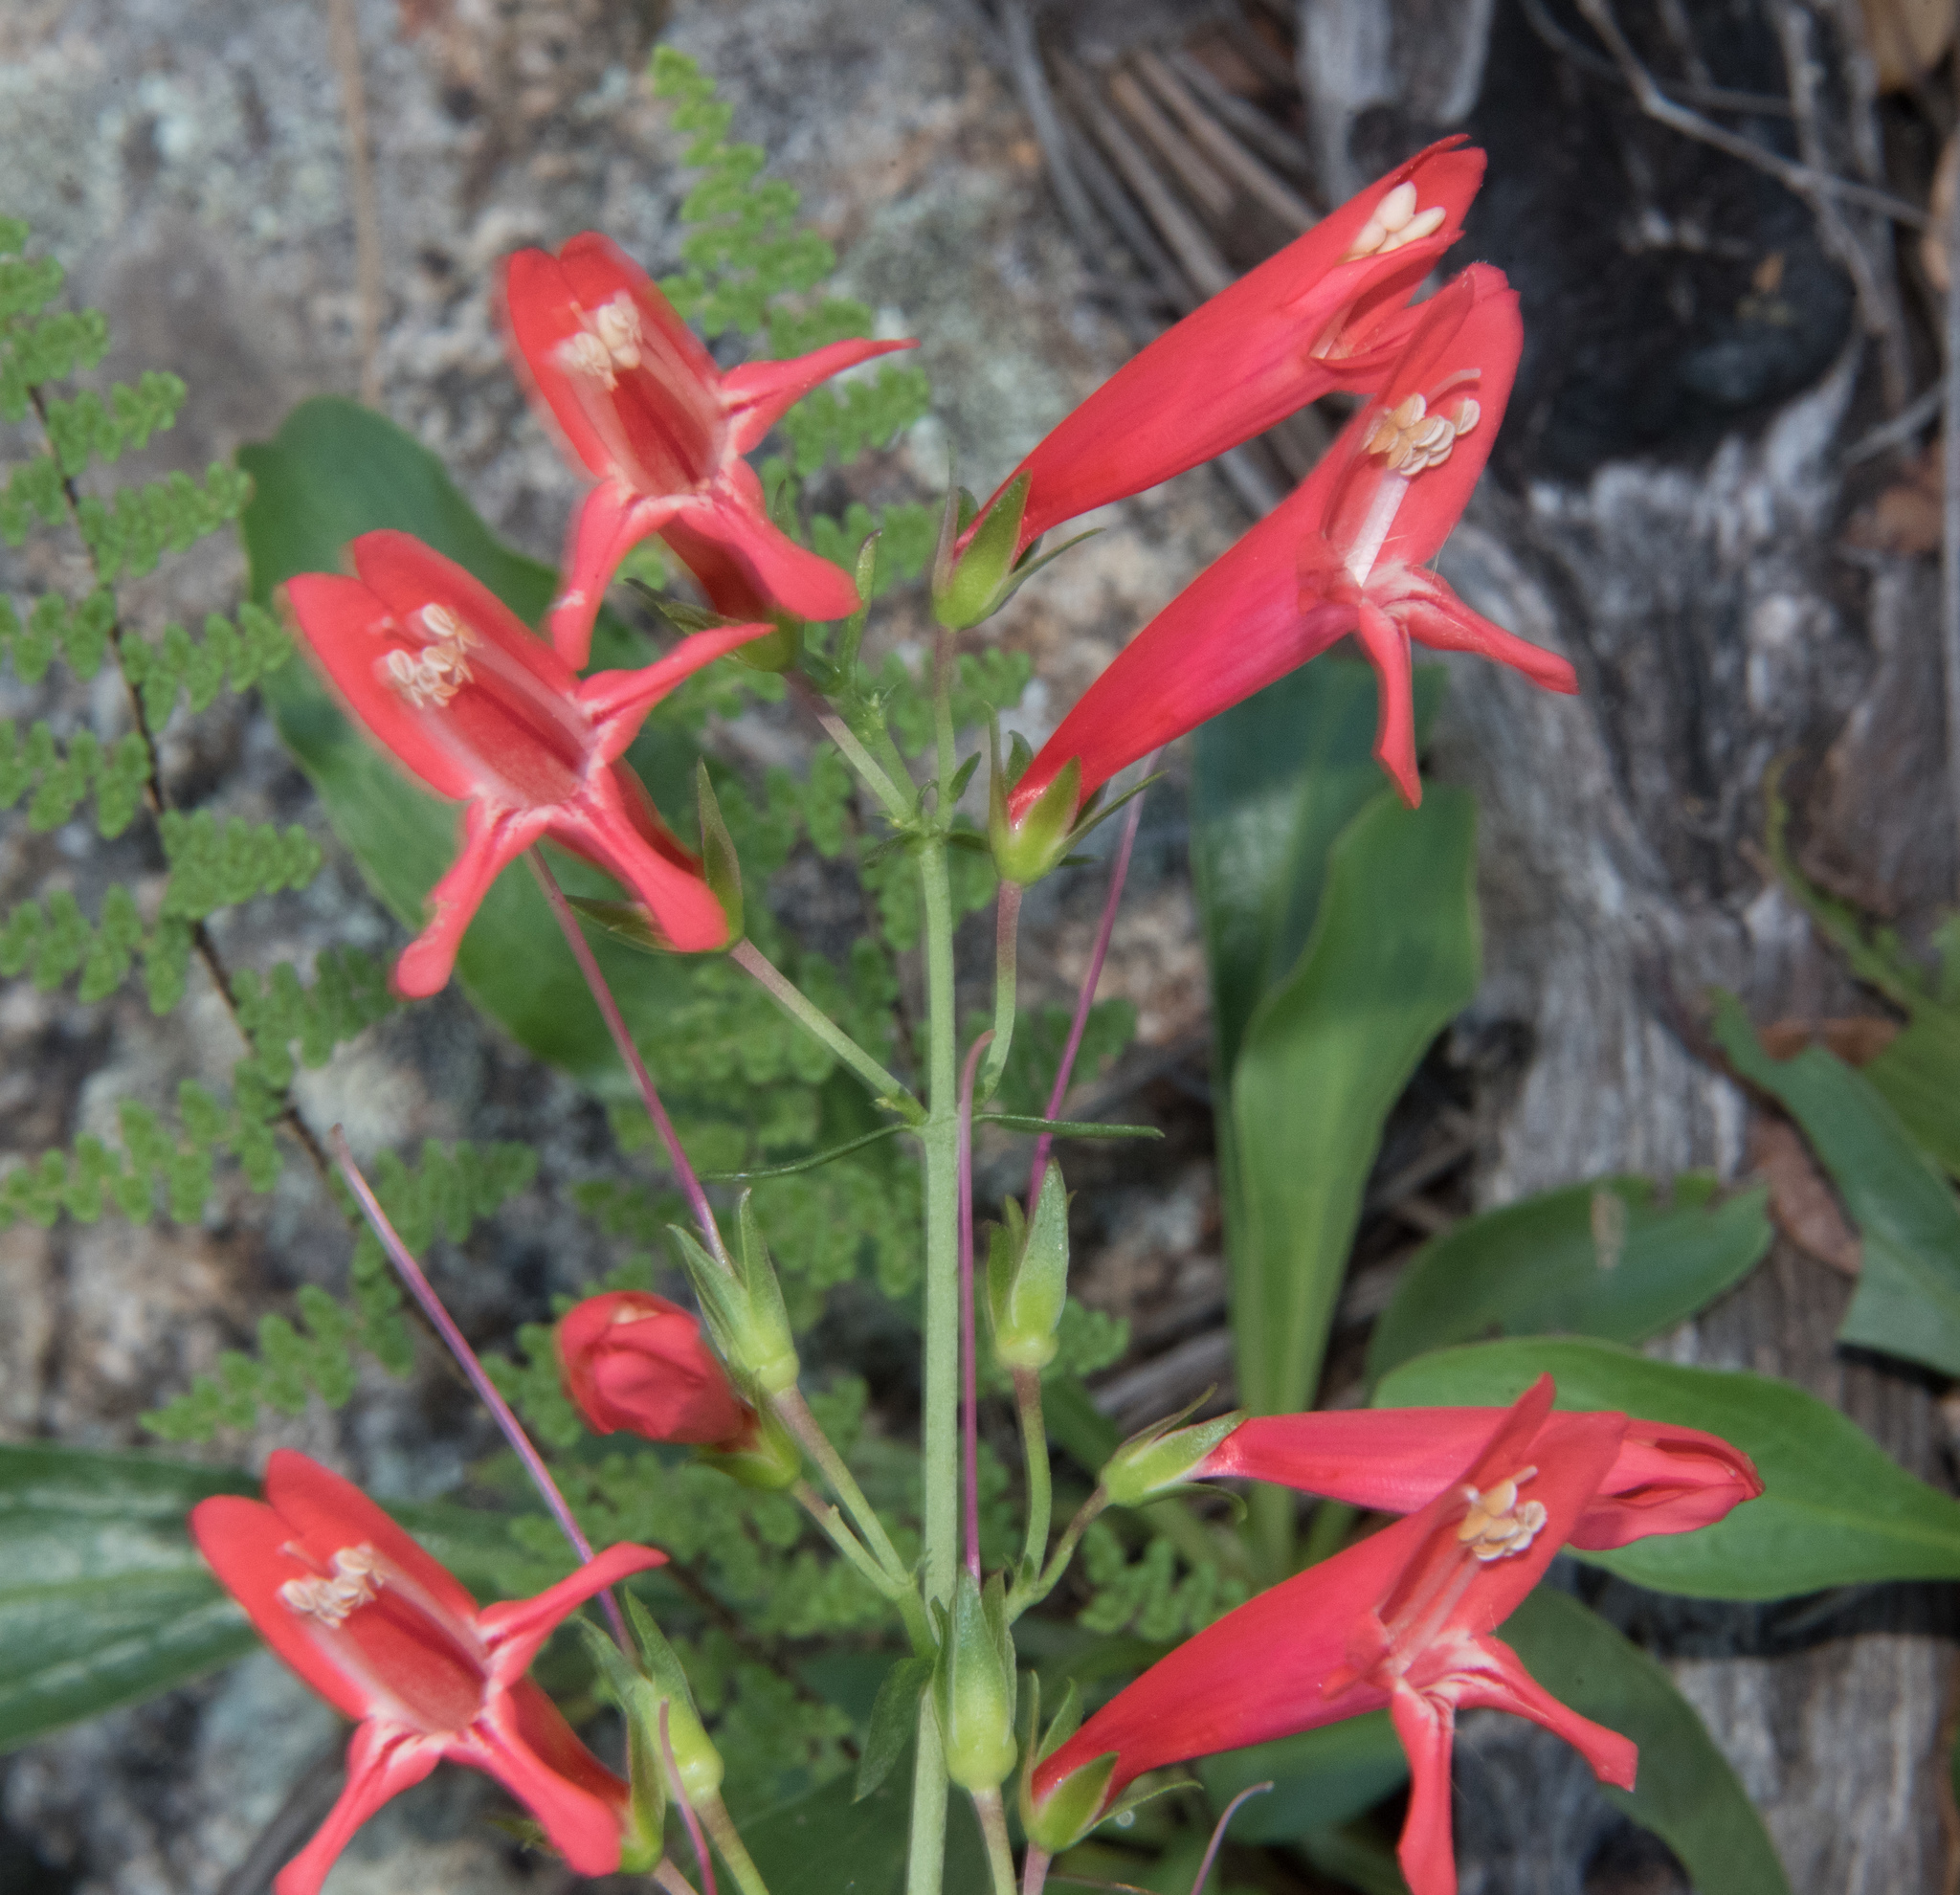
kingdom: Plantae
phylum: Tracheophyta
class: Magnoliopsida
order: Lamiales
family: Plantaginaceae
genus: Penstemon
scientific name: Penstemon barbatus
